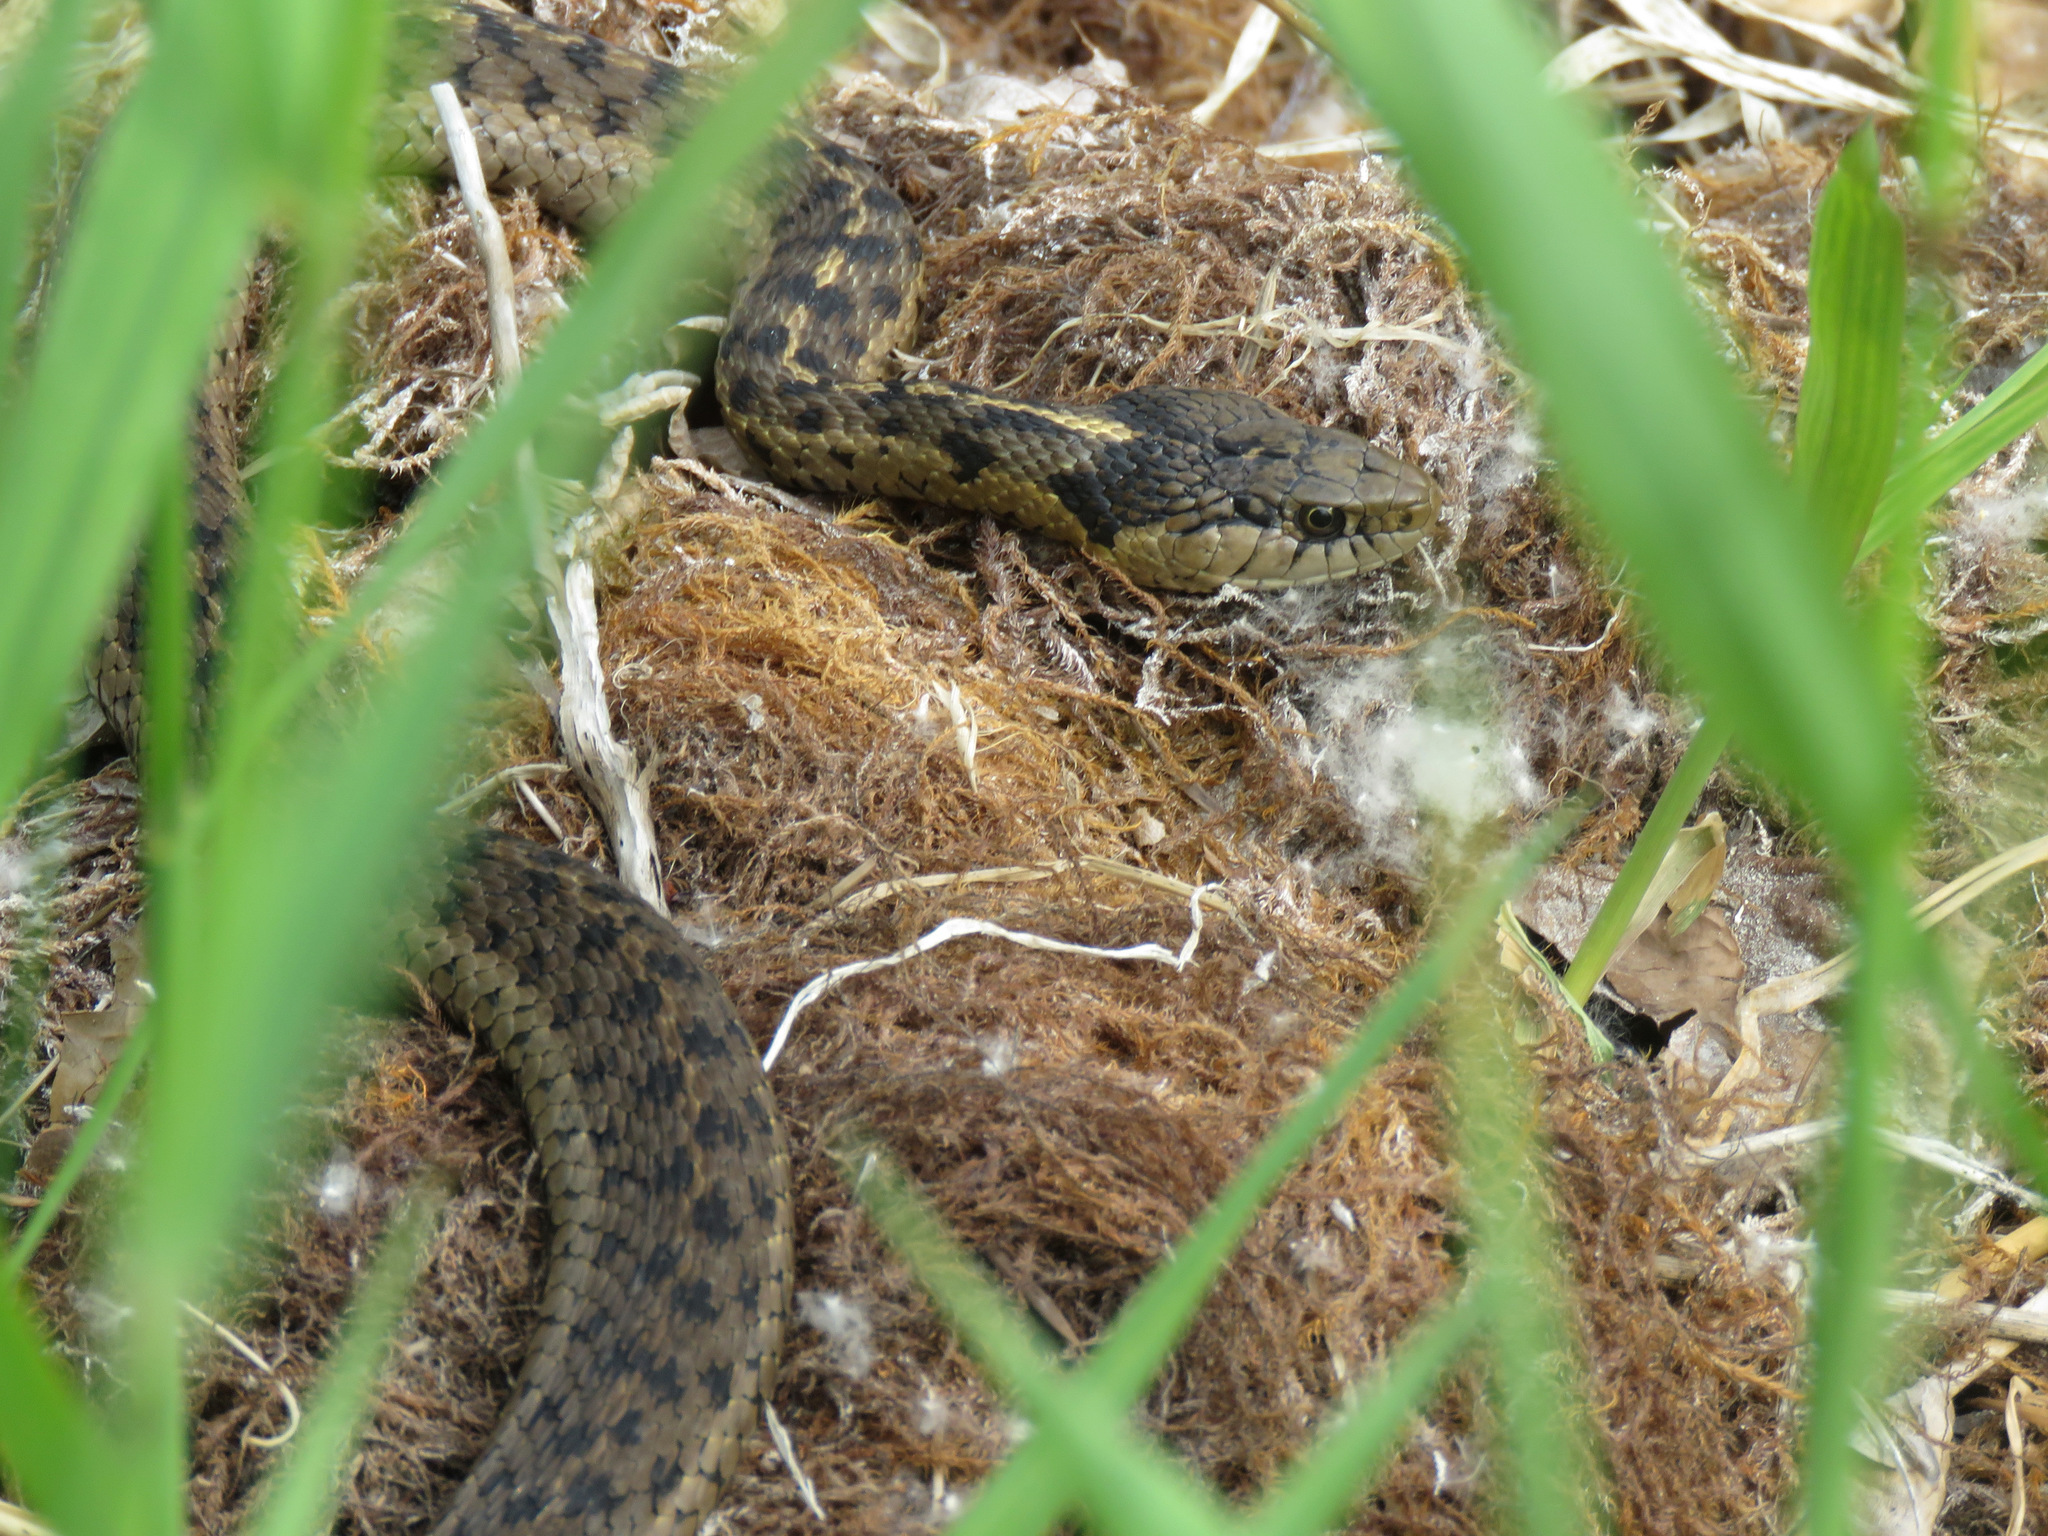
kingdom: Animalia
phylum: Chordata
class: Squamata
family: Colubridae
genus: Thamnophis
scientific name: Thamnophis elegans
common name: Western terrestrial garter snake
